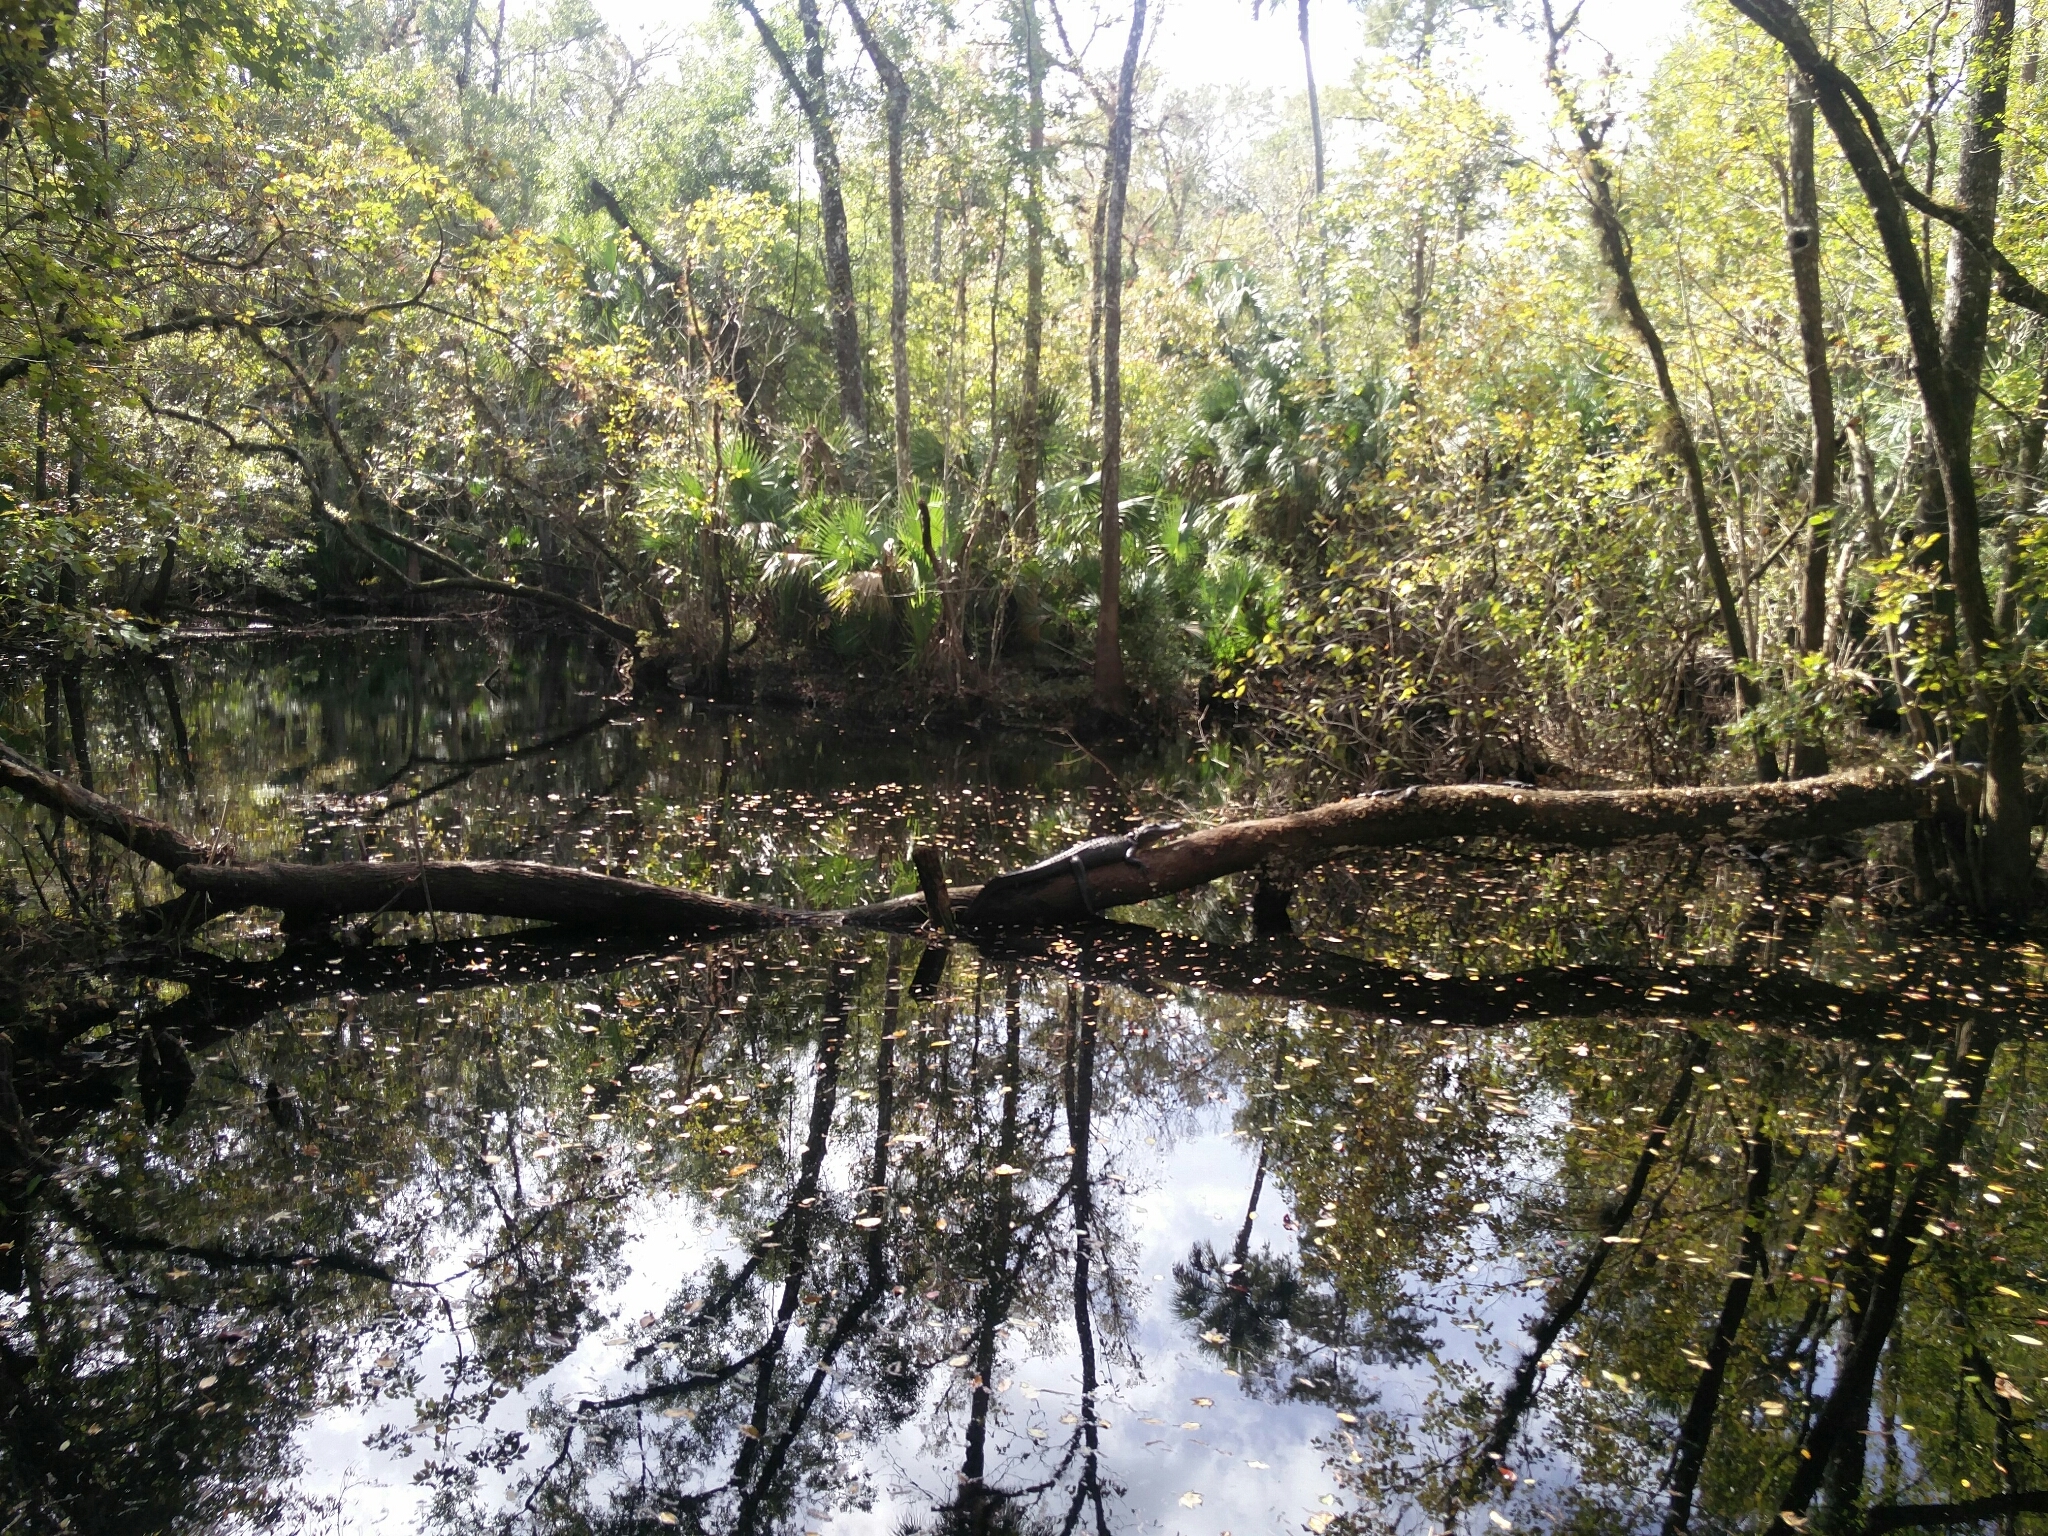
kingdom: Animalia
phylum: Chordata
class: Crocodylia
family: Alligatoridae
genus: Alligator
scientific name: Alligator mississippiensis
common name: American alligator
